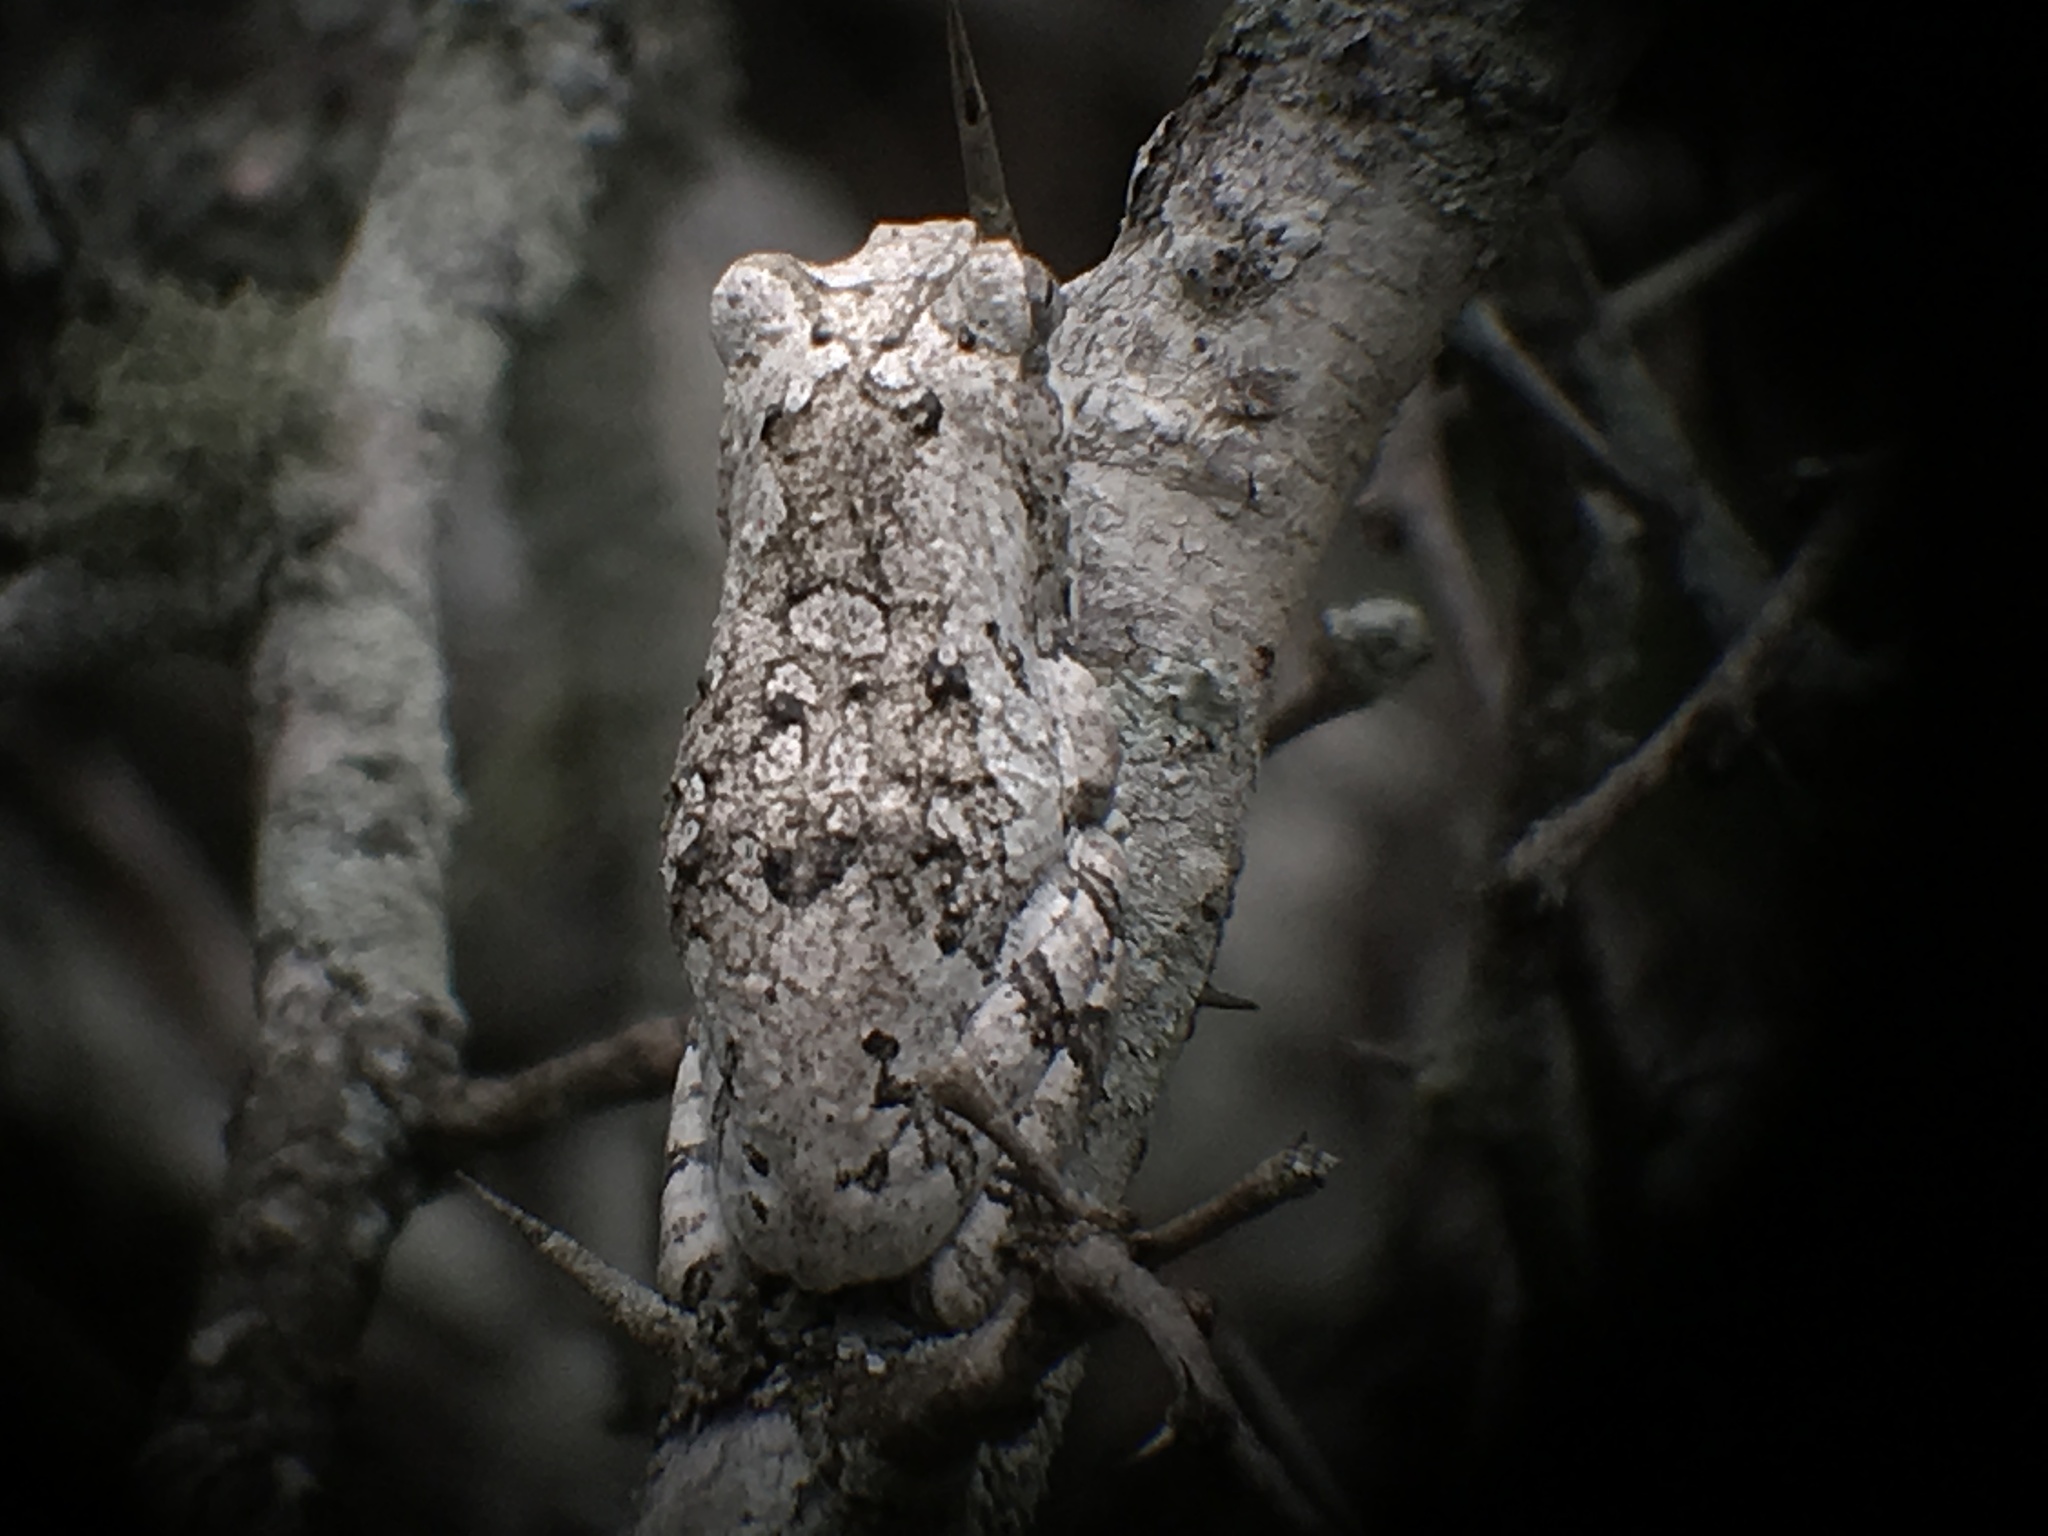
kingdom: Animalia
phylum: Chordata
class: Amphibia
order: Anura
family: Rhacophoridae
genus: Chiromantis
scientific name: Chiromantis xerampelina
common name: African gray treefrog
